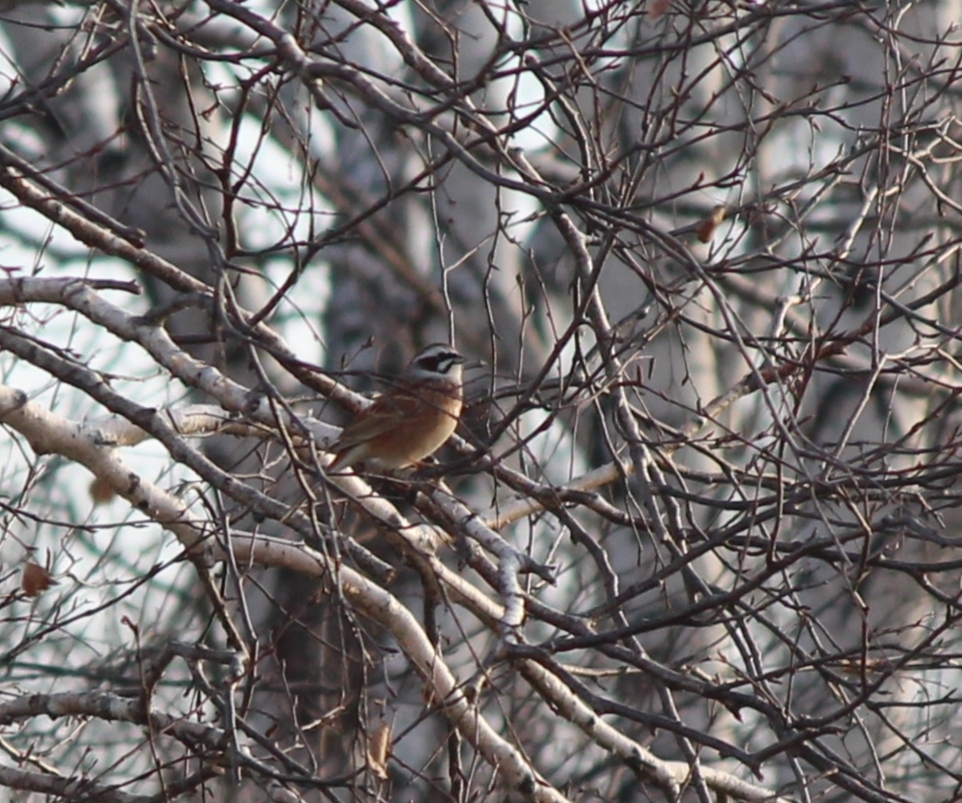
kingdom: Animalia
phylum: Chordata
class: Aves
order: Passeriformes
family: Emberizidae
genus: Emberiza
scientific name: Emberiza cioides
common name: Meadow bunting
